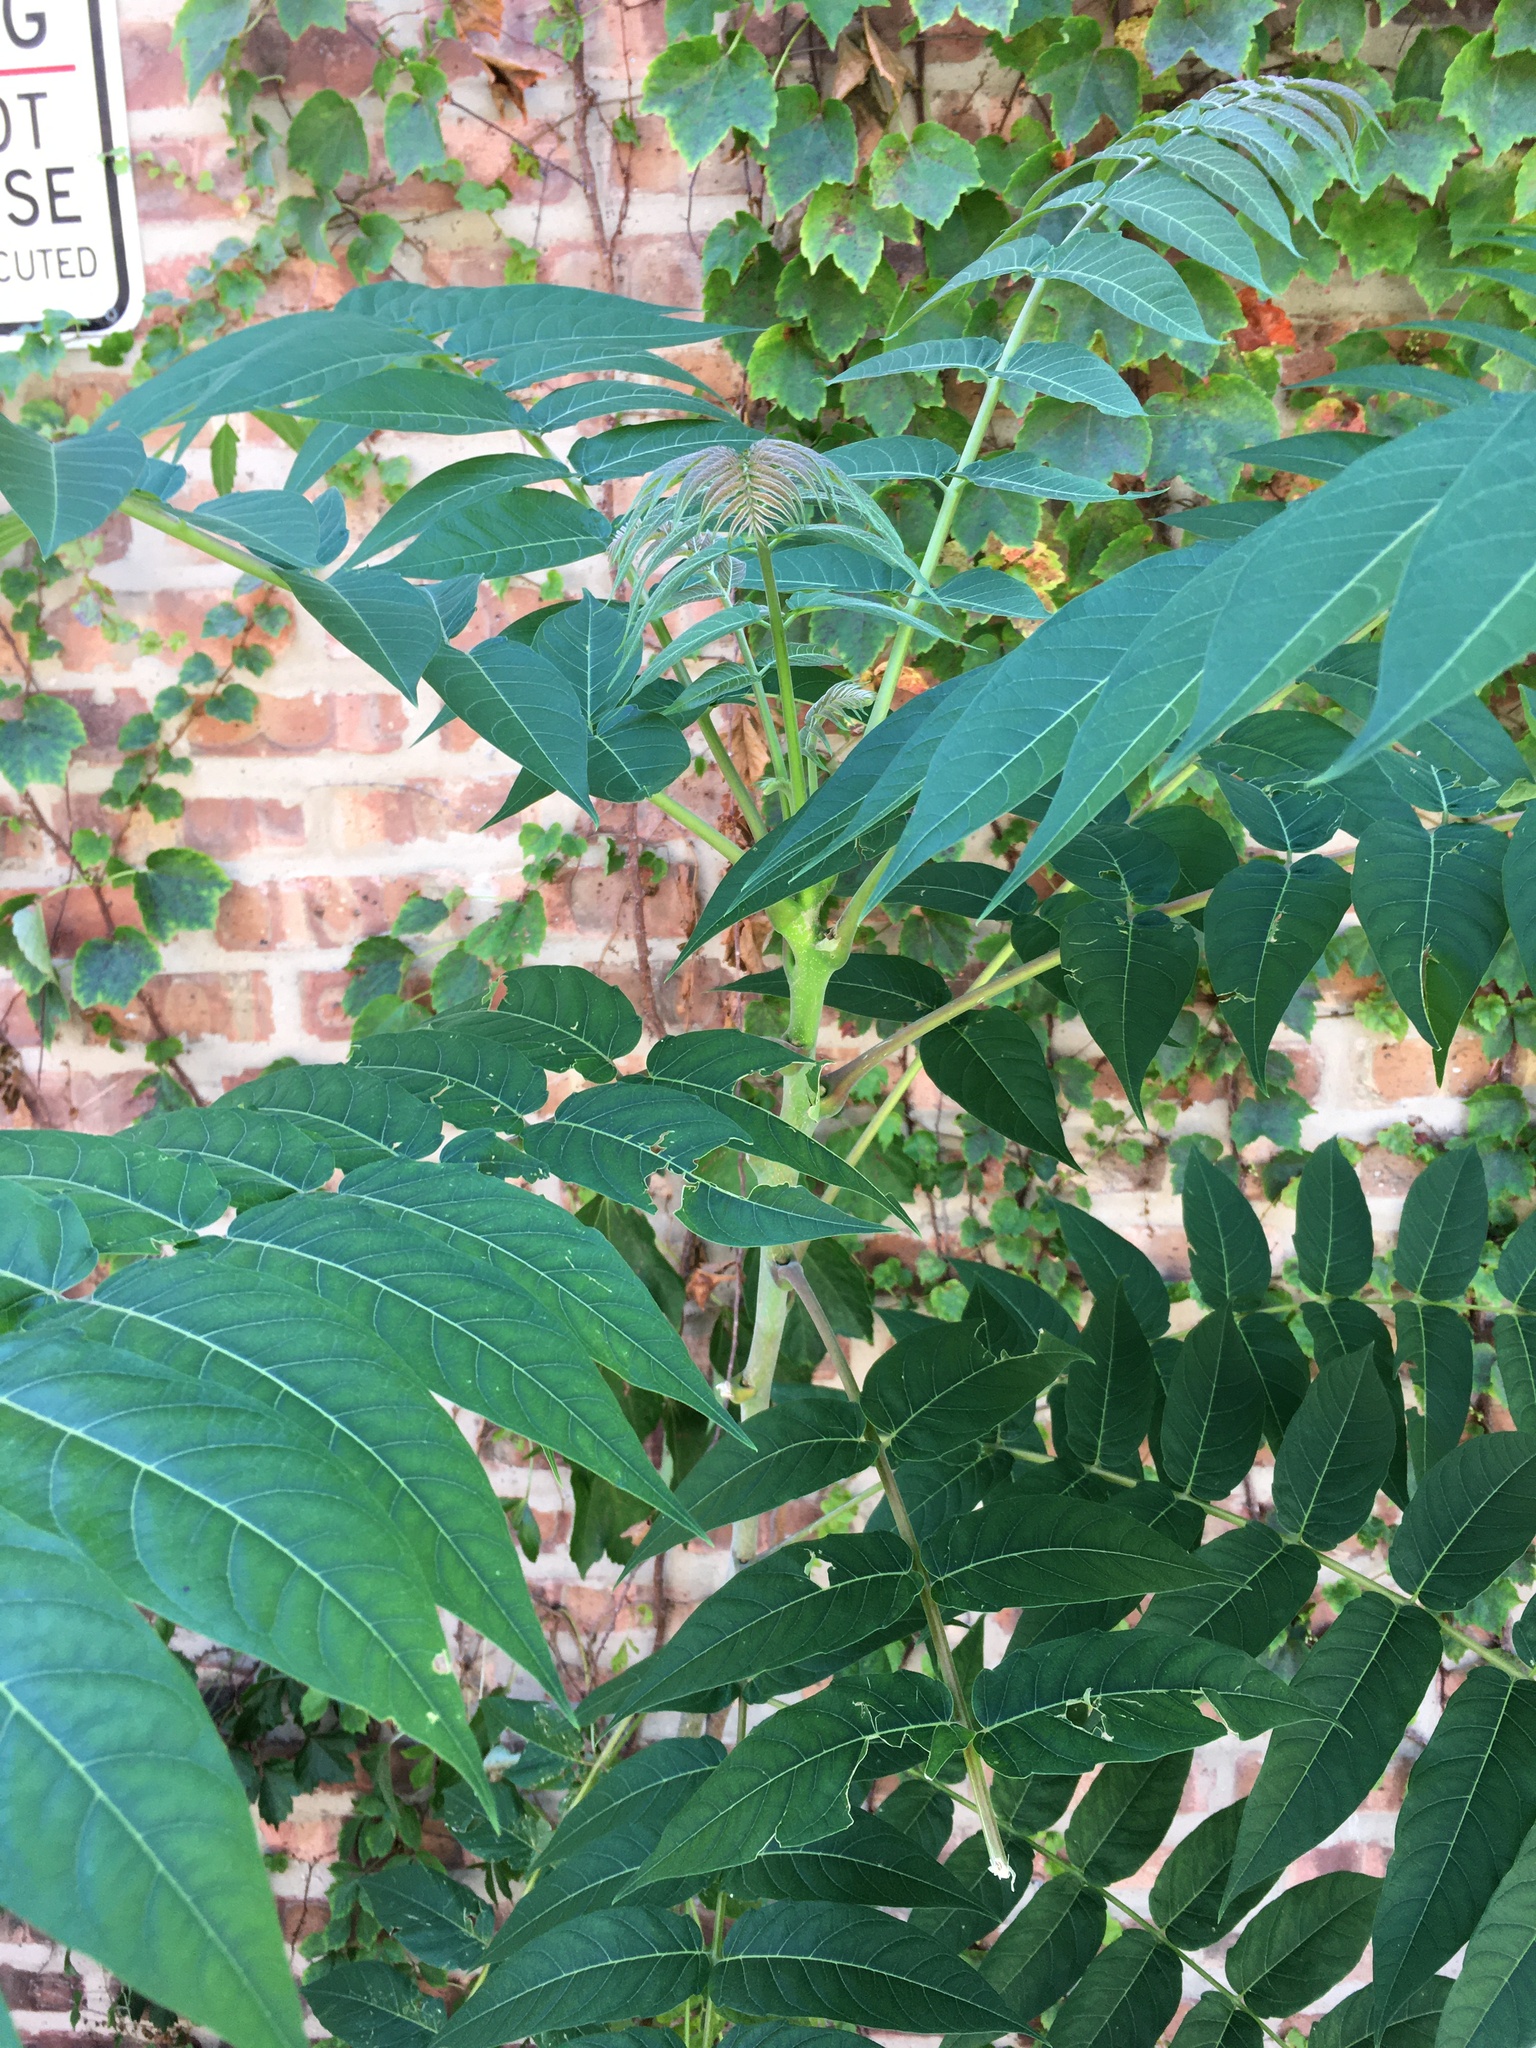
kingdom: Plantae
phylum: Tracheophyta
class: Magnoliopsida
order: Sapindales
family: Simaroubaceae
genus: Ailanthus
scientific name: Ailanthus altissima
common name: Tree-of-heaven
